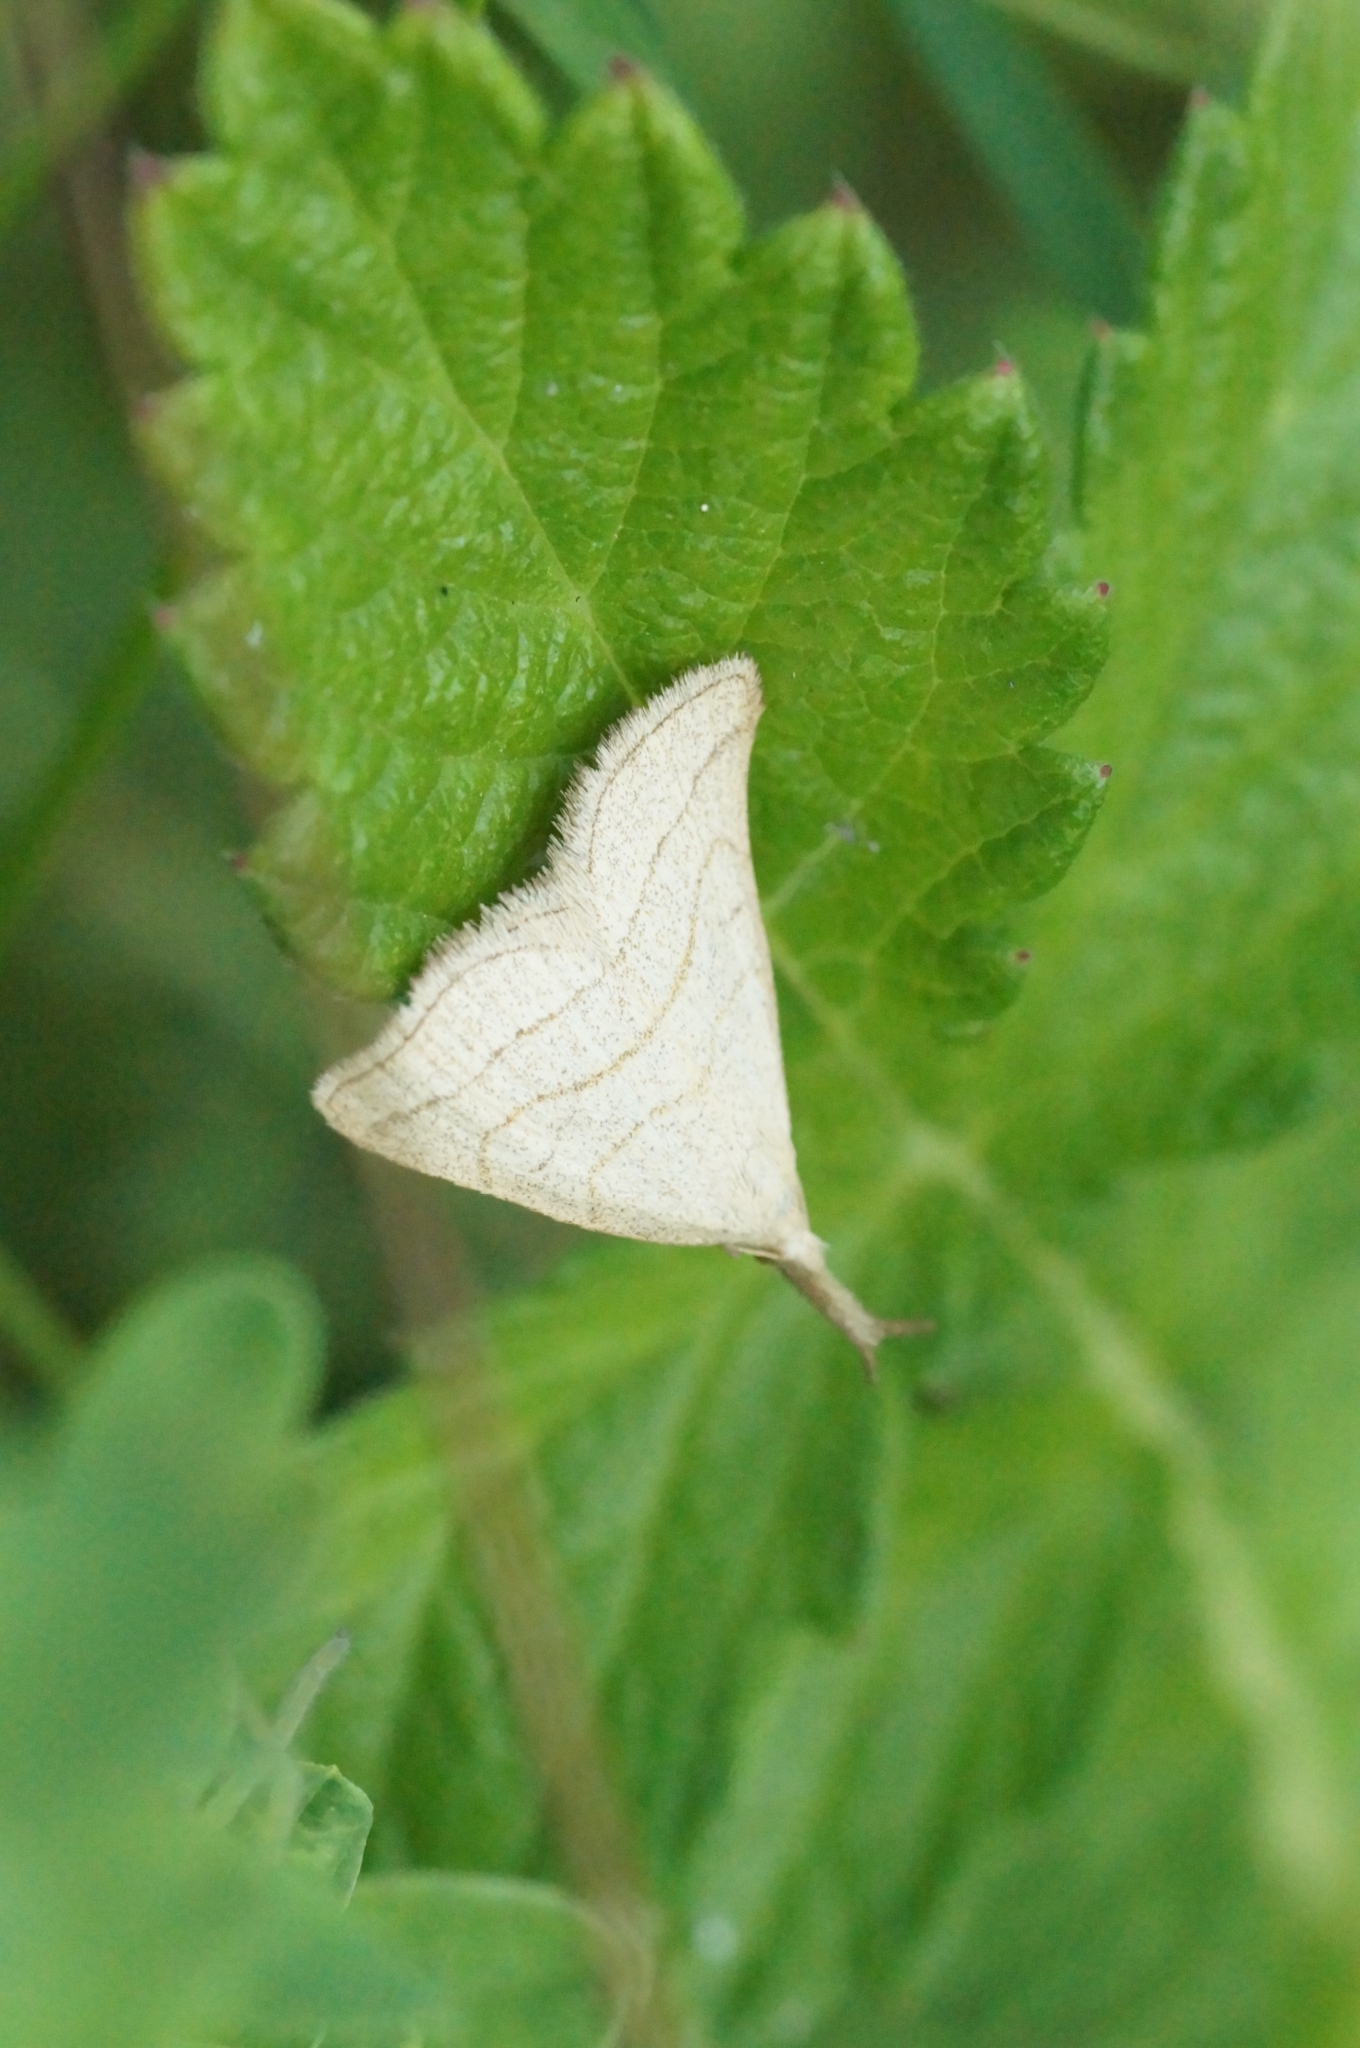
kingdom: Animalia
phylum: Arthropoda
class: Insecta
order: Lepidoptera
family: Erebidae
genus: Polypogon
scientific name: Polypogon tentacularia
